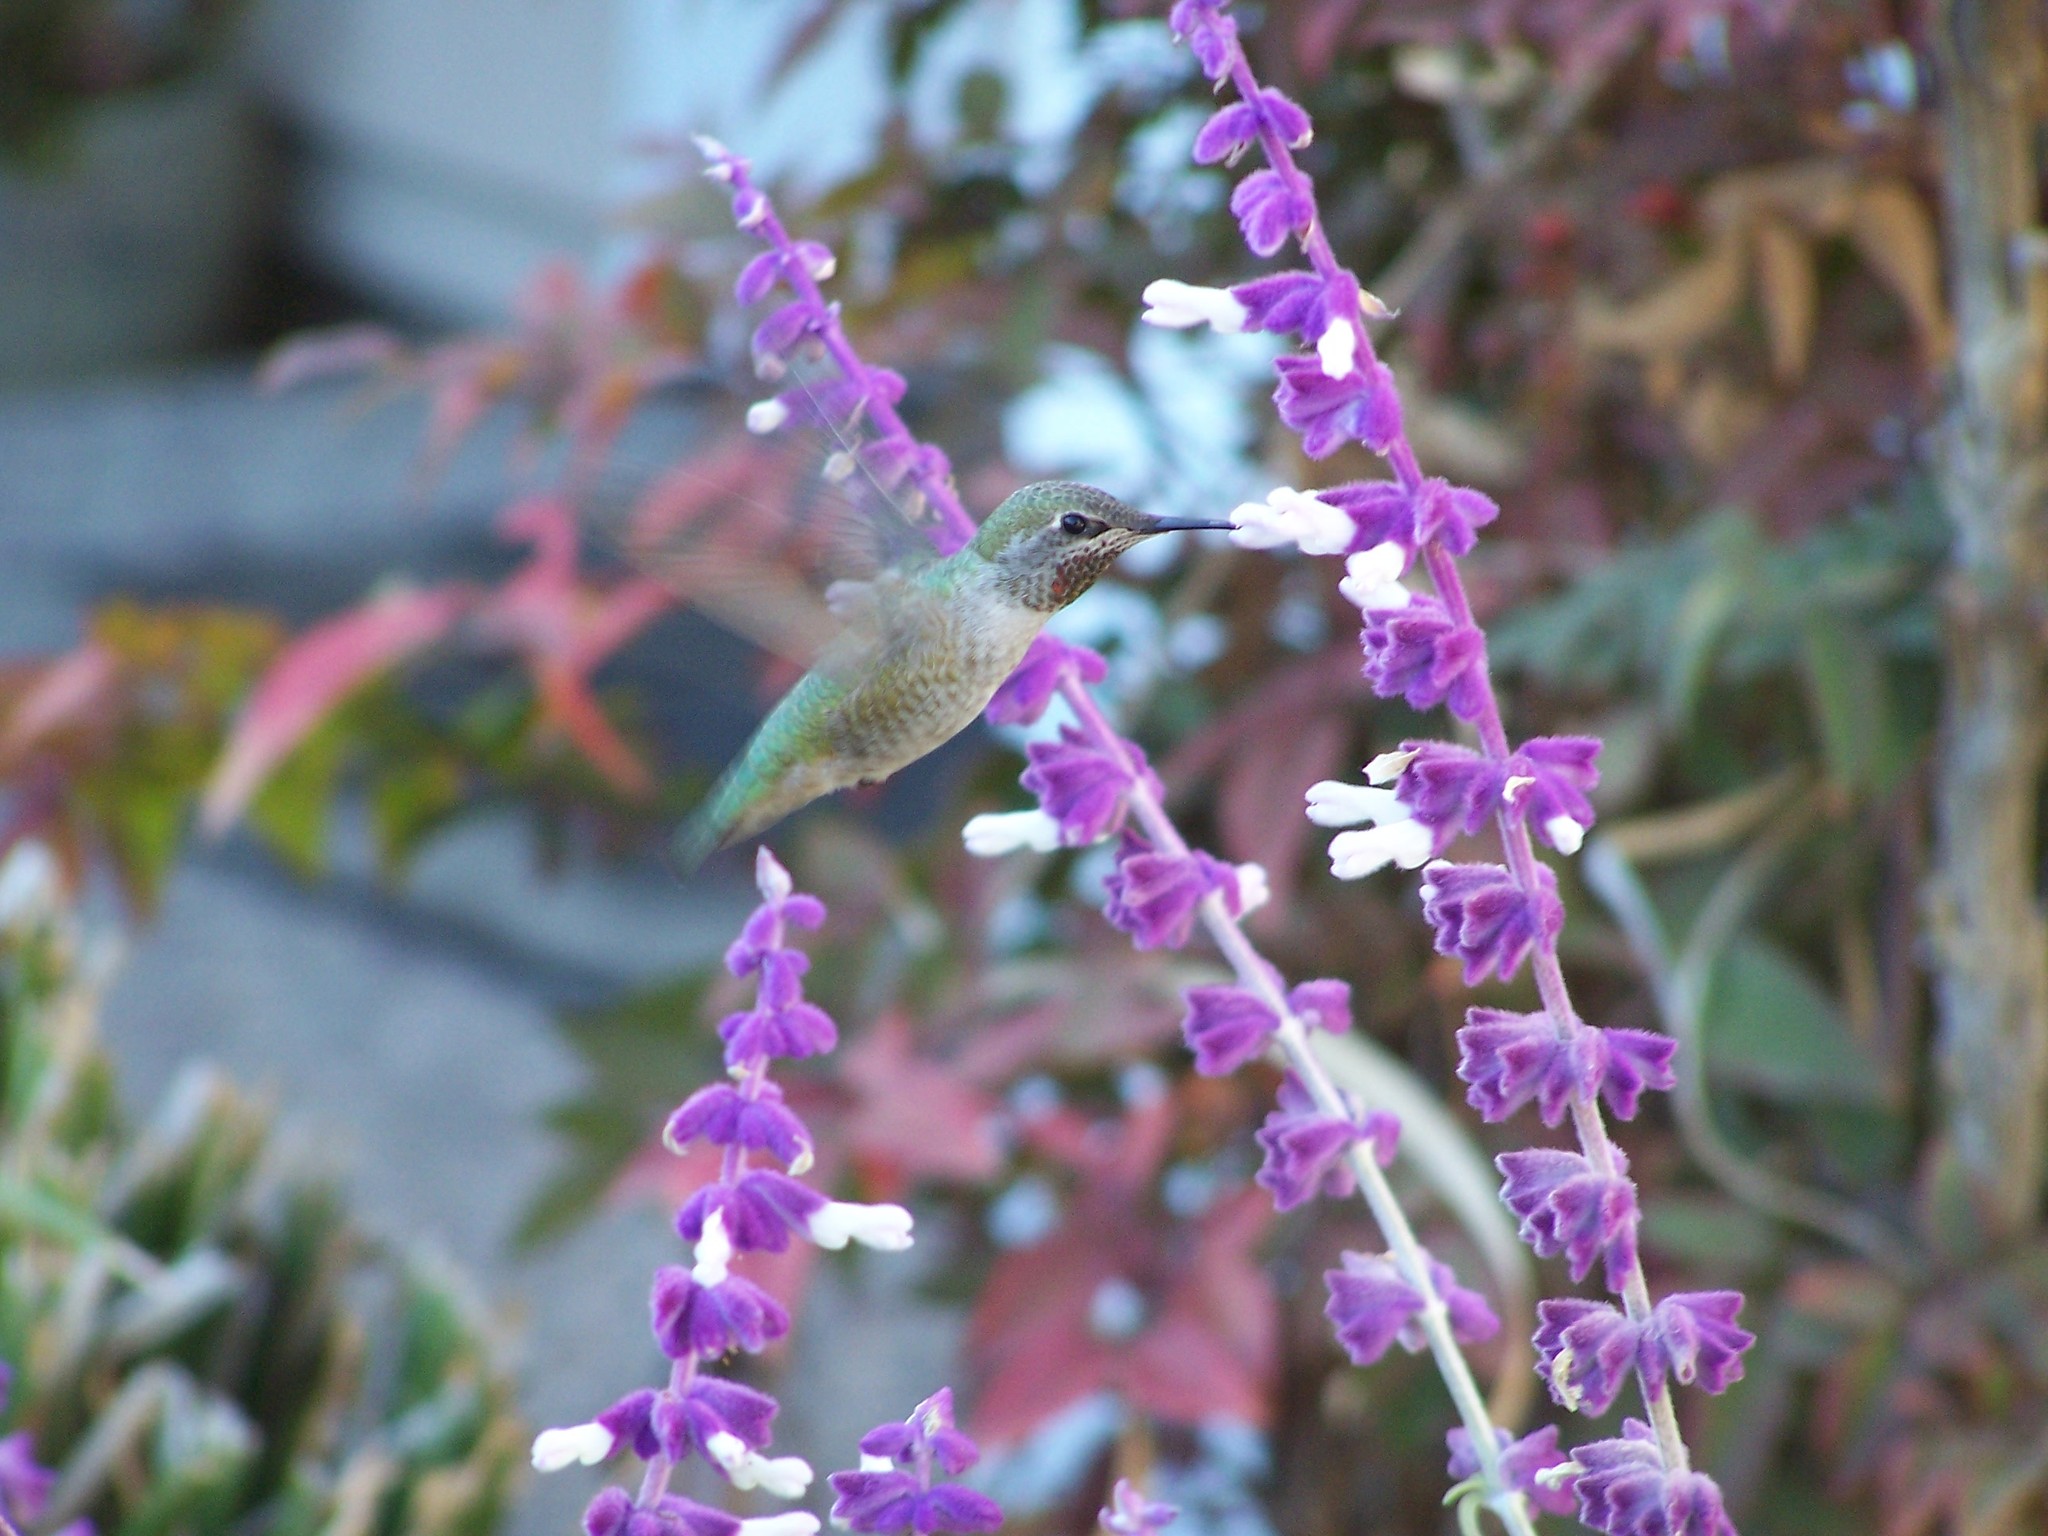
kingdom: Animalia
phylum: Chordata
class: Aves
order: Apodiformes
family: Trochilidae
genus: Calypte
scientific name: Calypte anna
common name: Anna's hummingbird
